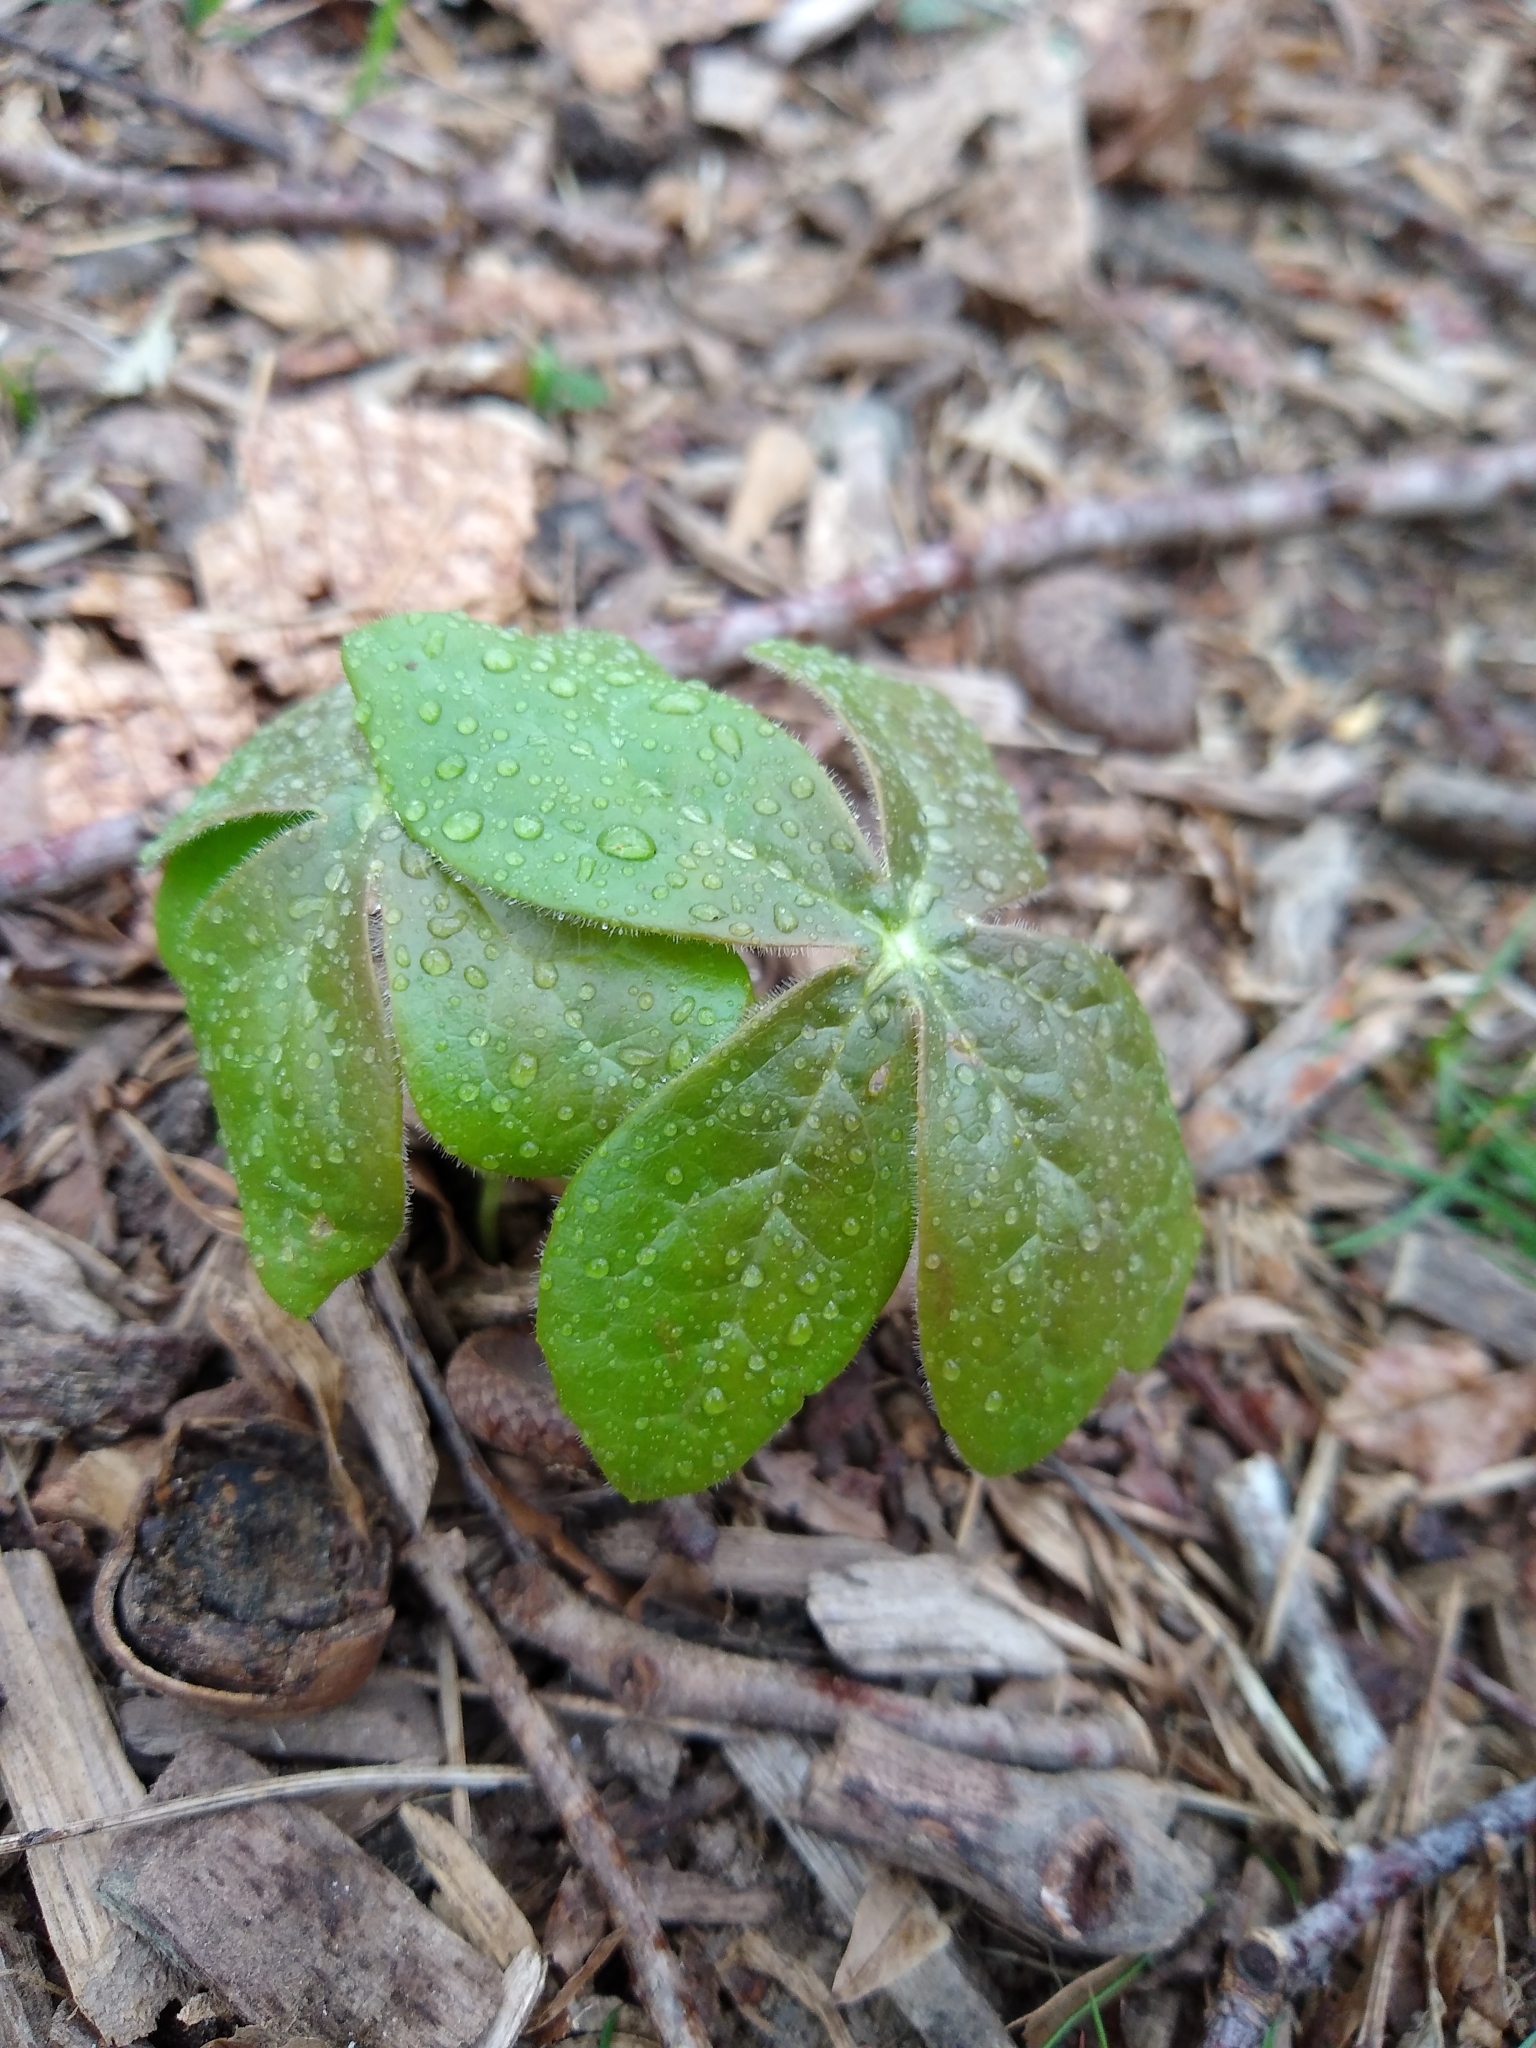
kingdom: Plantae
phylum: Tracheophyta
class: Magnoliopsida
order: Ranunculales
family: Berberidaceae
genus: Podophyllum
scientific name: Podophyllum peltatum
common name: Wild mandrake
